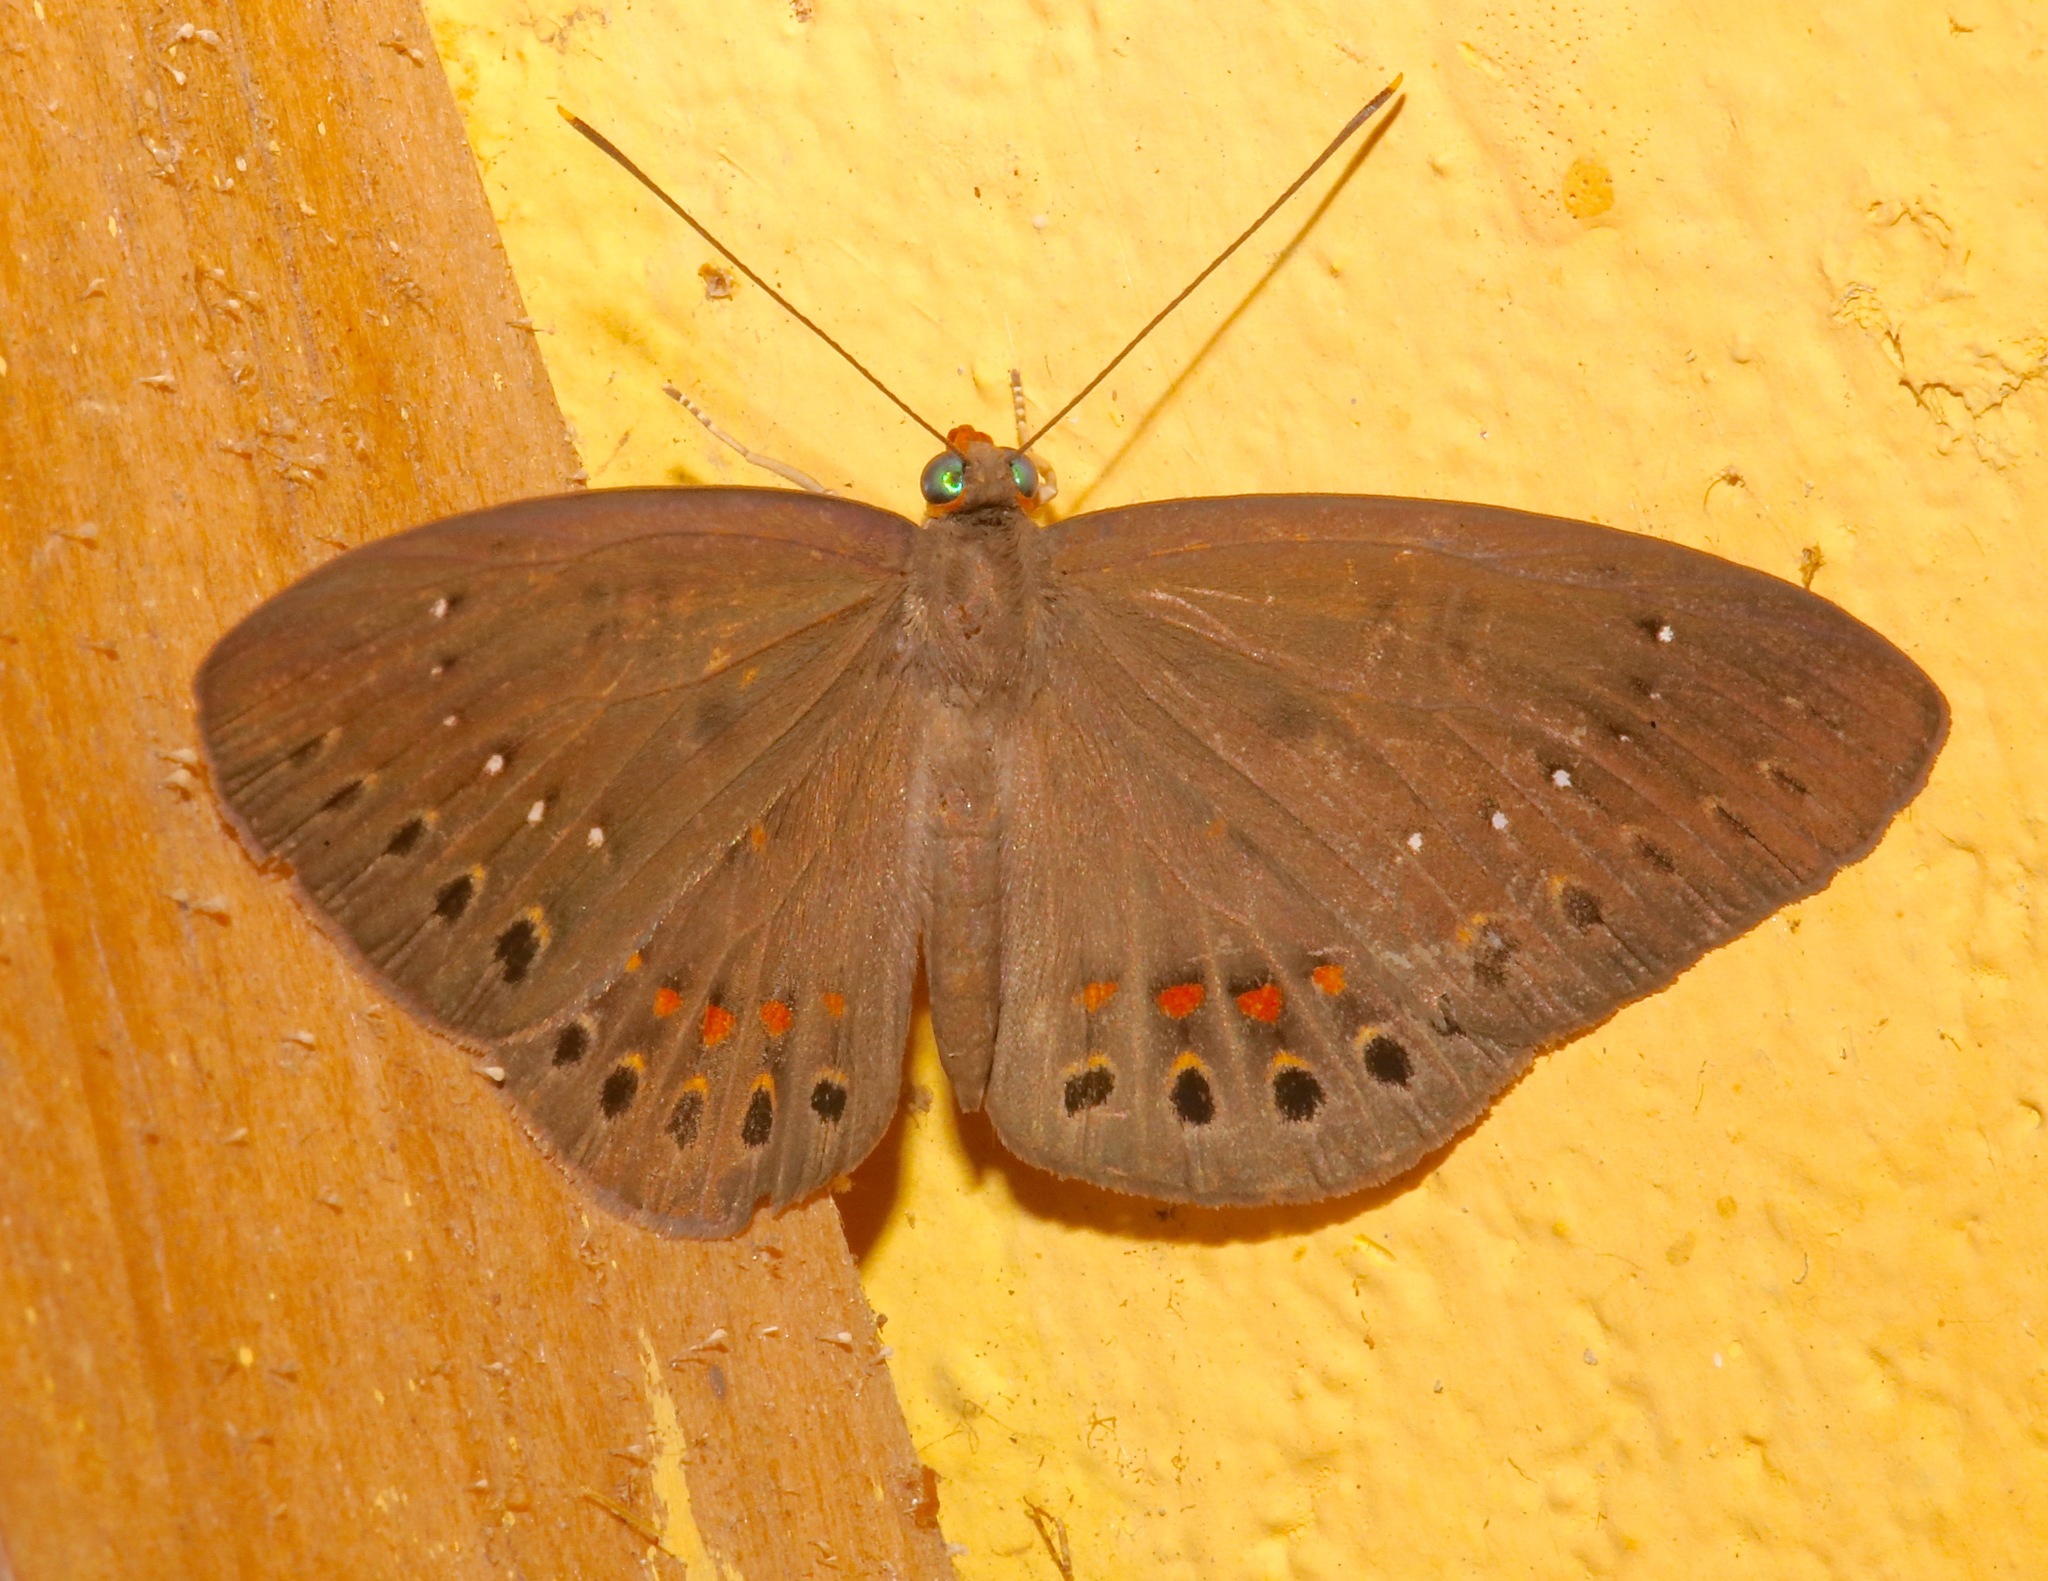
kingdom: Animalia
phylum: Cnidaria
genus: Eurybia
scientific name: Eurybia elvina
